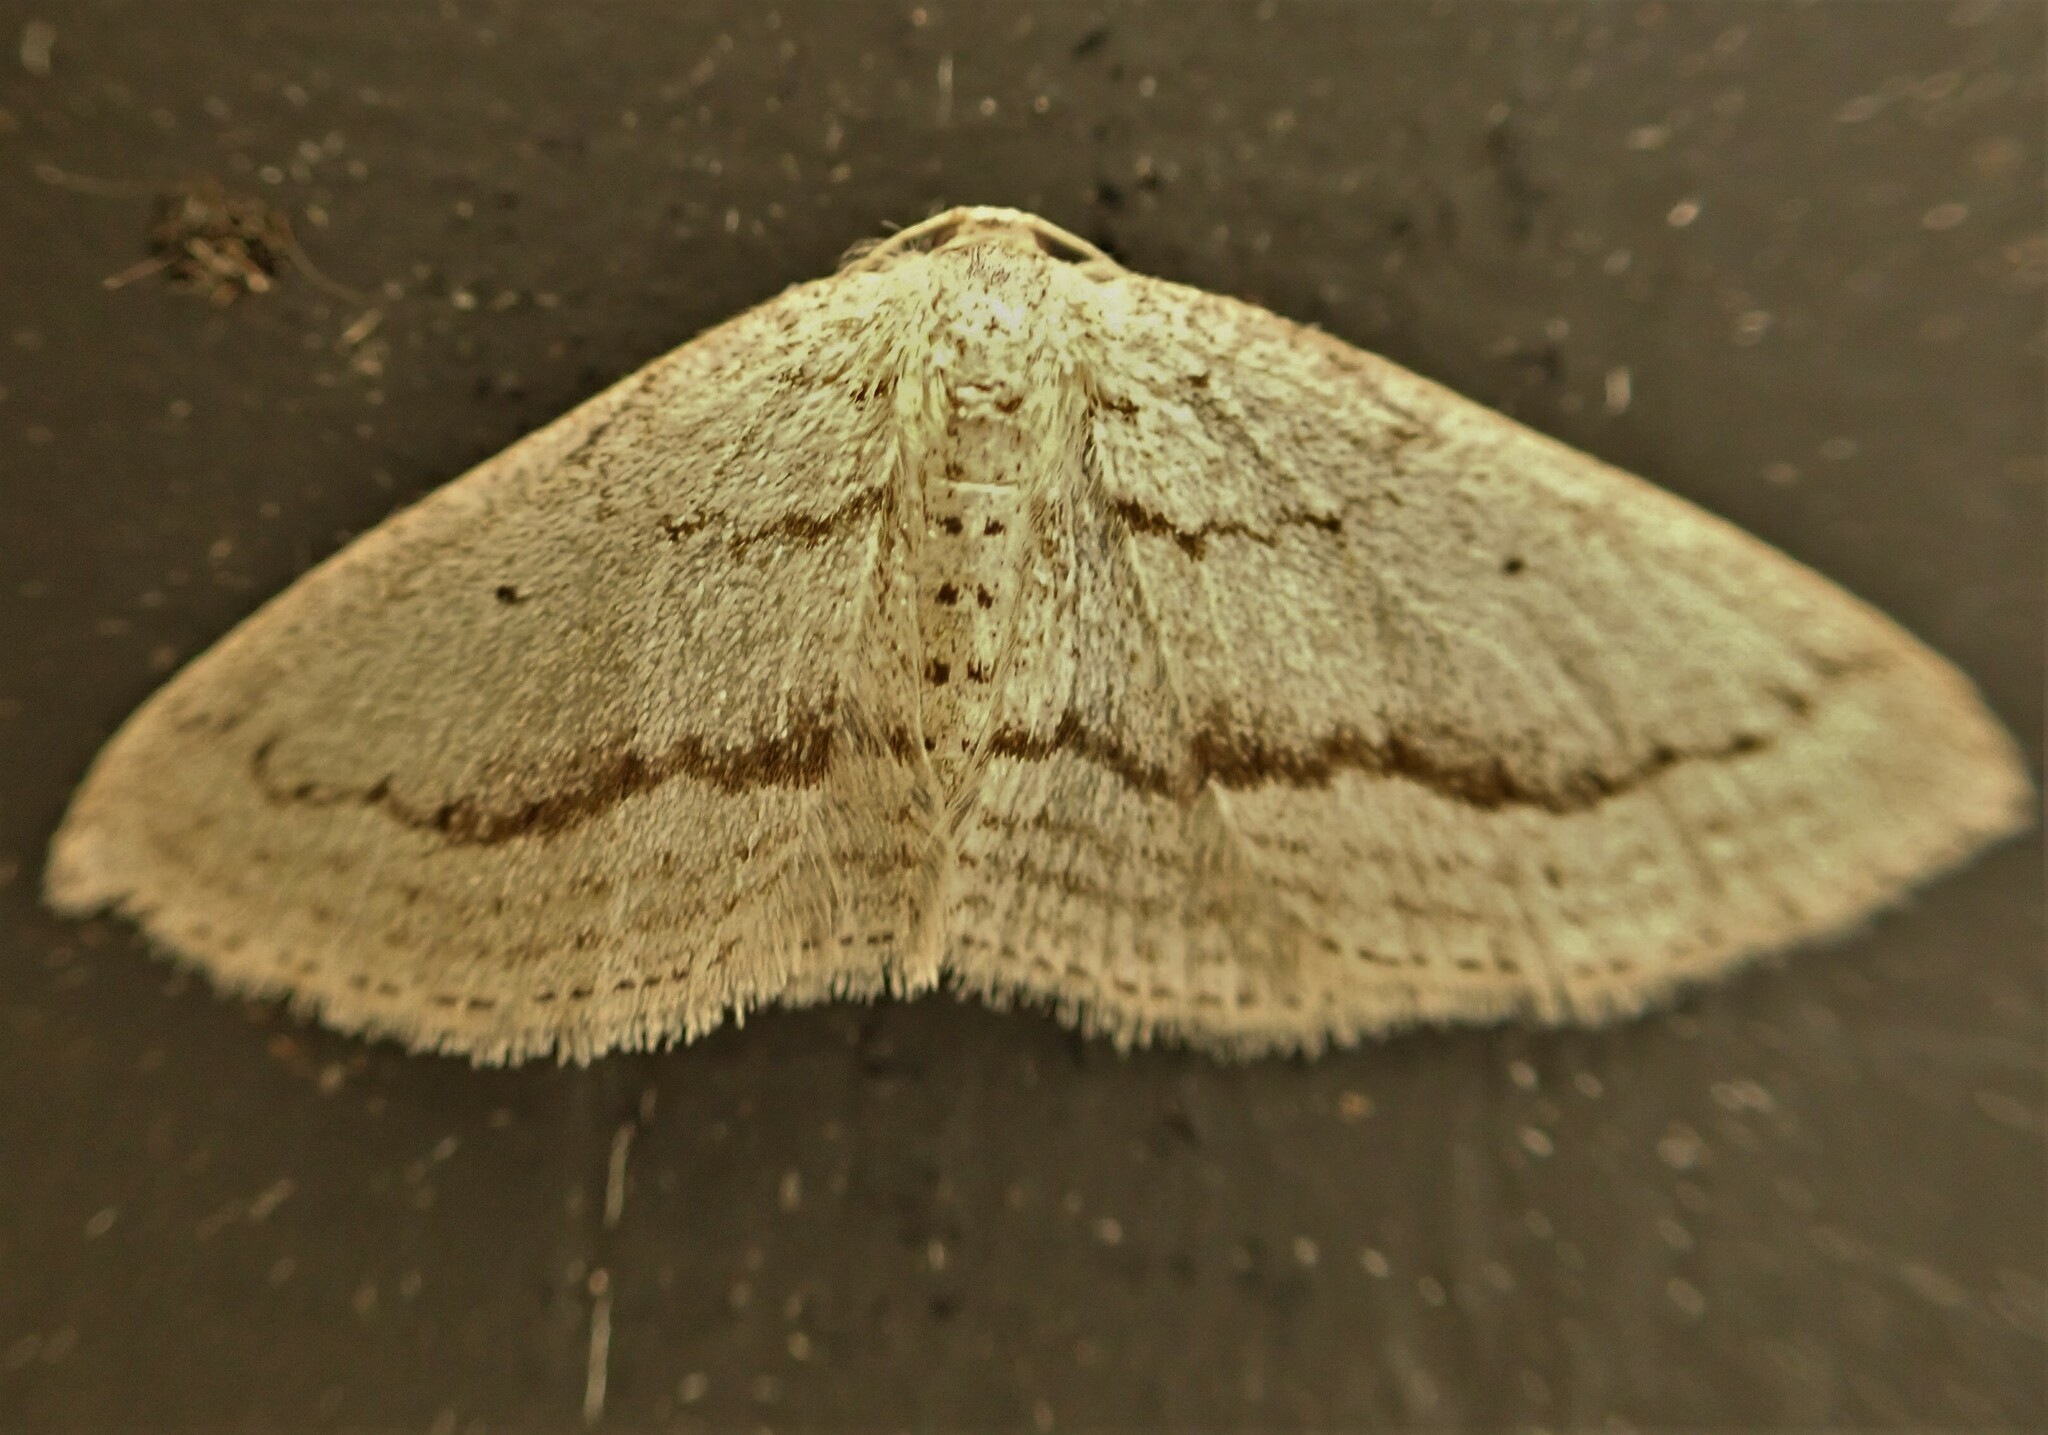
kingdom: Animalia
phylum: Arthropoda
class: Insecta
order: Lepidoptera
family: Geometridae
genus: Poecilasthena
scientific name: Poecilasthena schistaria
